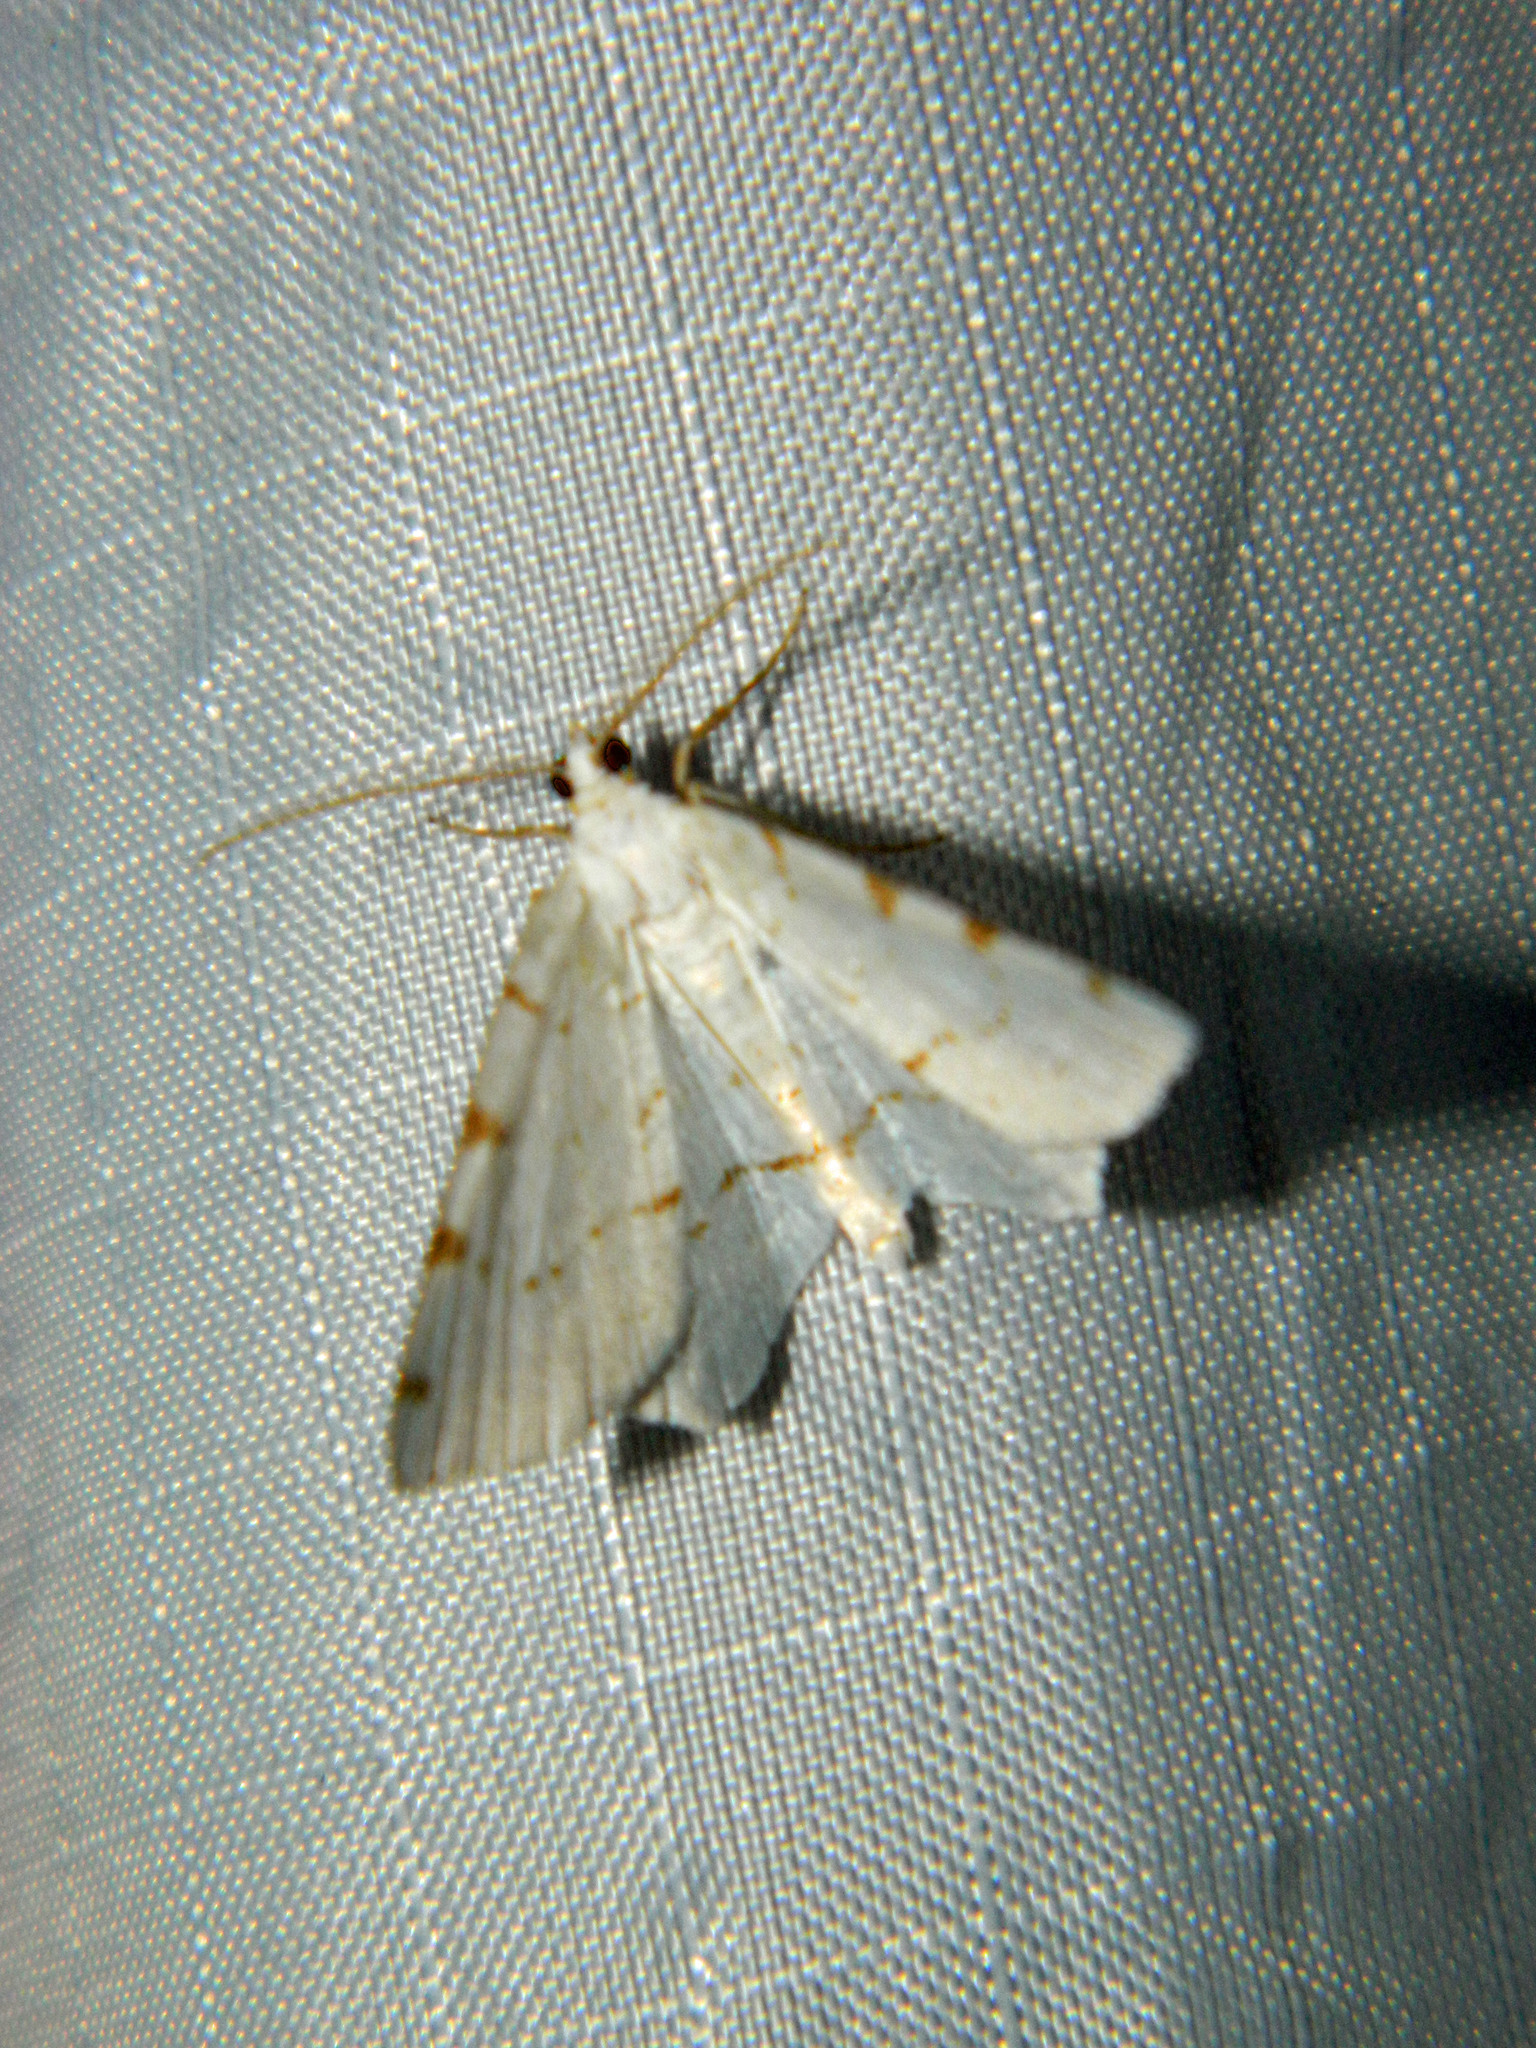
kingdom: Animalia
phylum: Arthropoda
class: Insecta
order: Lepidoptera
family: Geometridae
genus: Macaria
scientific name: Macaria pustularia
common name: Lesser maple spanworm moth
